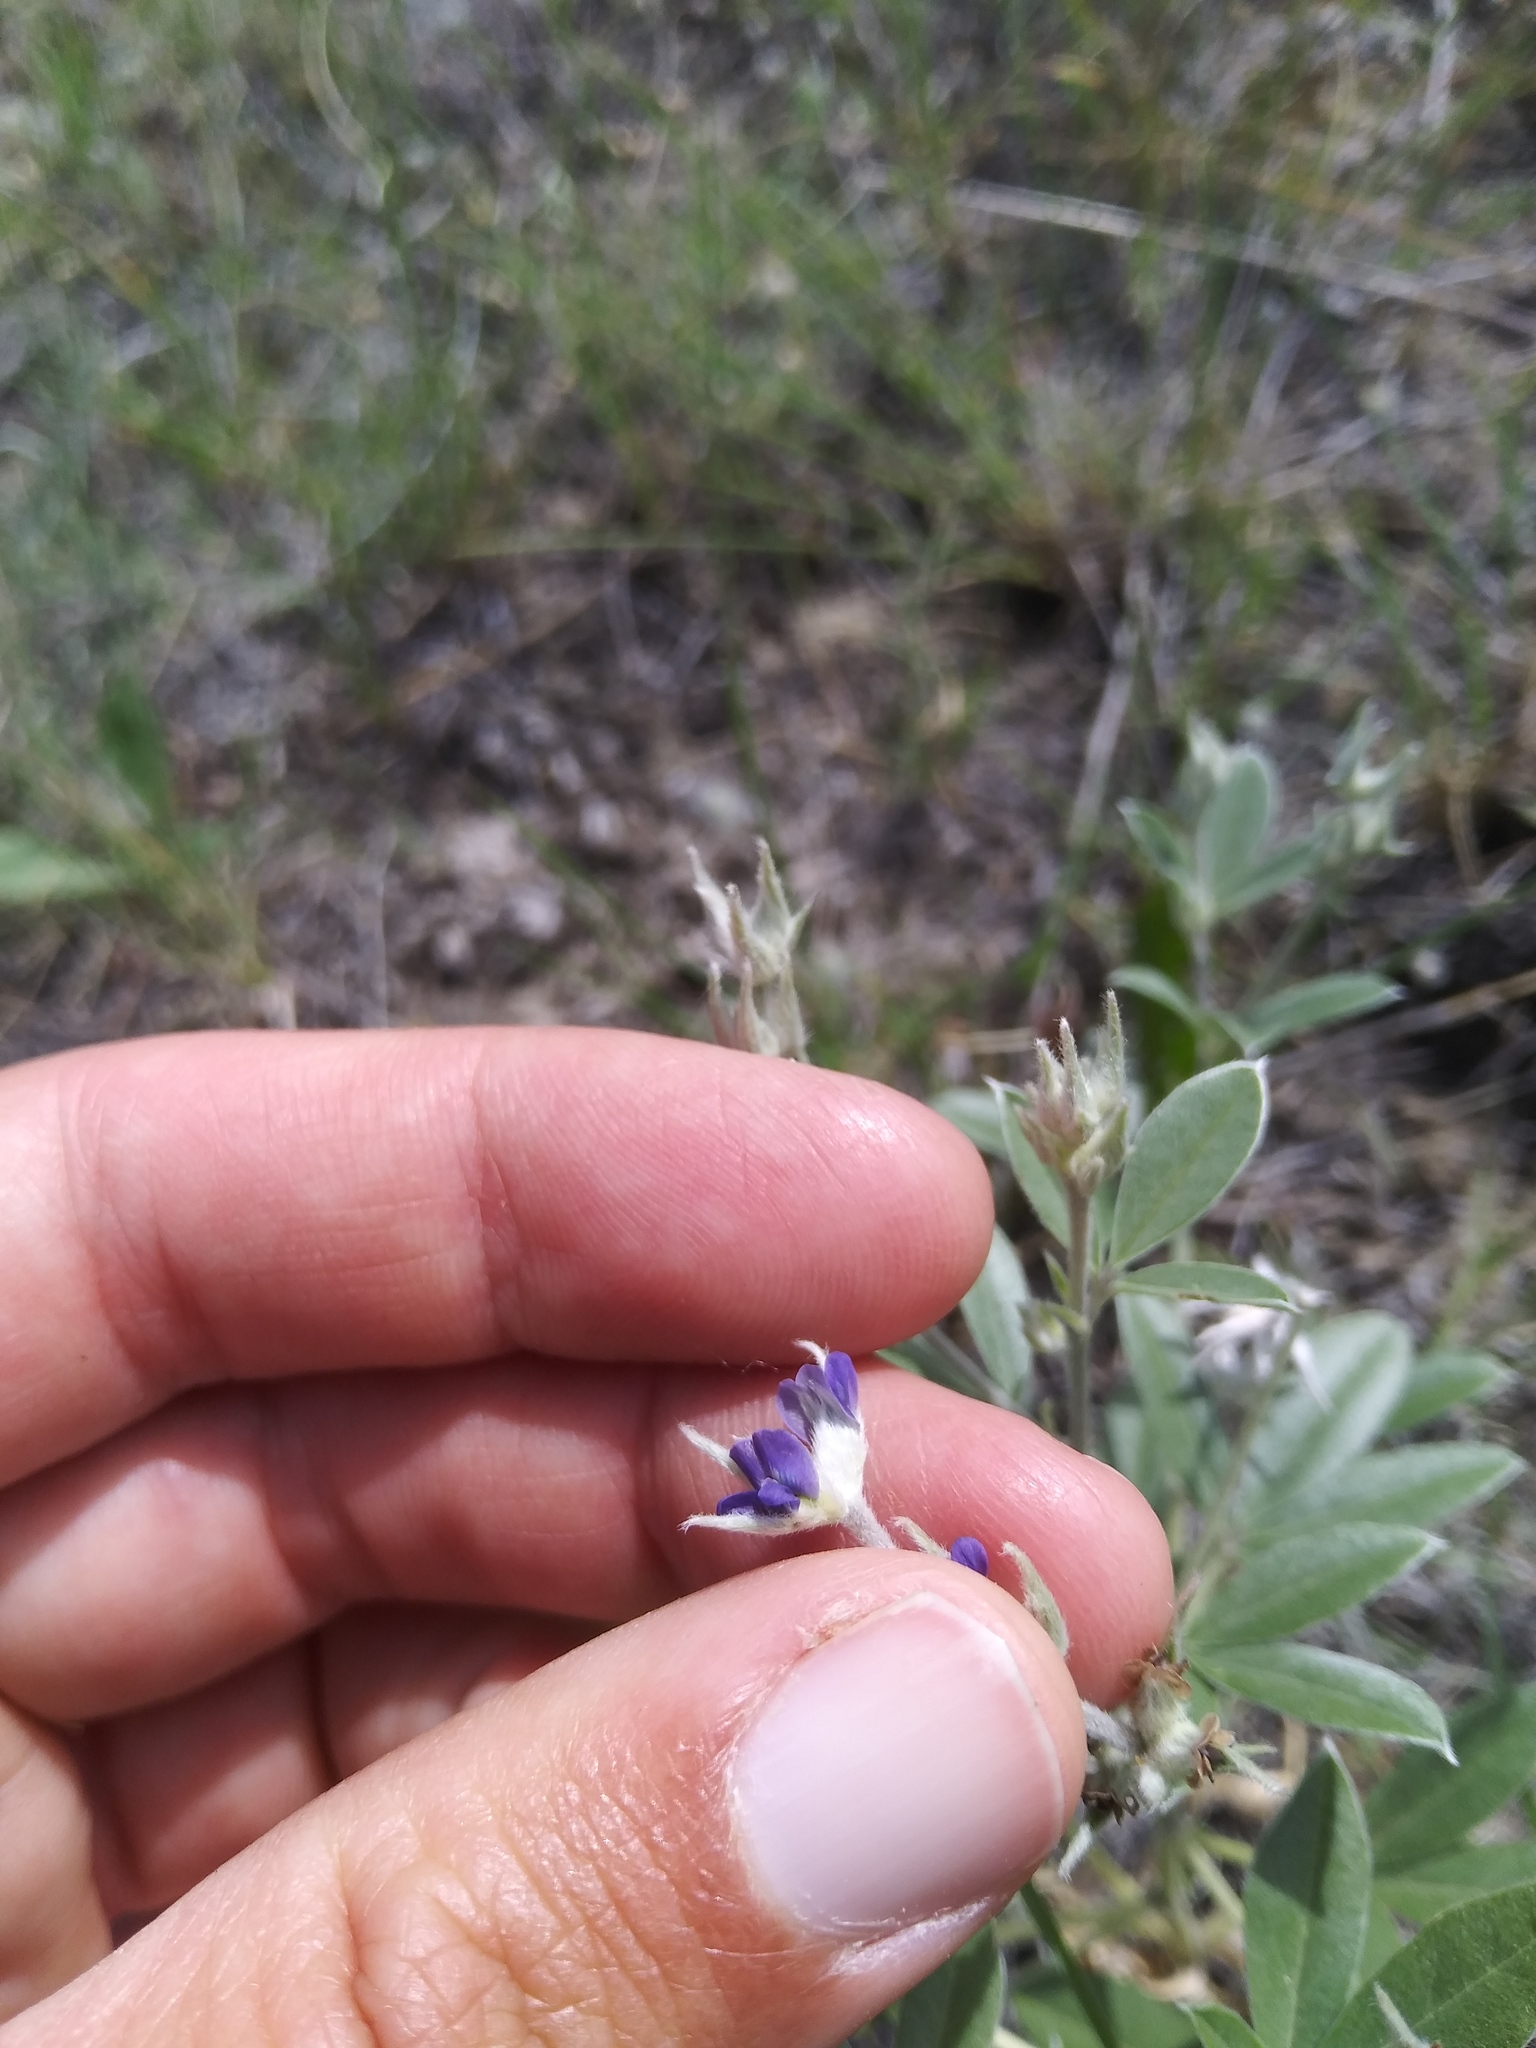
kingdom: Plantae
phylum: Tracheophyta
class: Magnoliopsida
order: Fabales
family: Fabaceae
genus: Pediomelum
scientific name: Pediomelum argophyllum
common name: Silver-leaved indian breadroot
